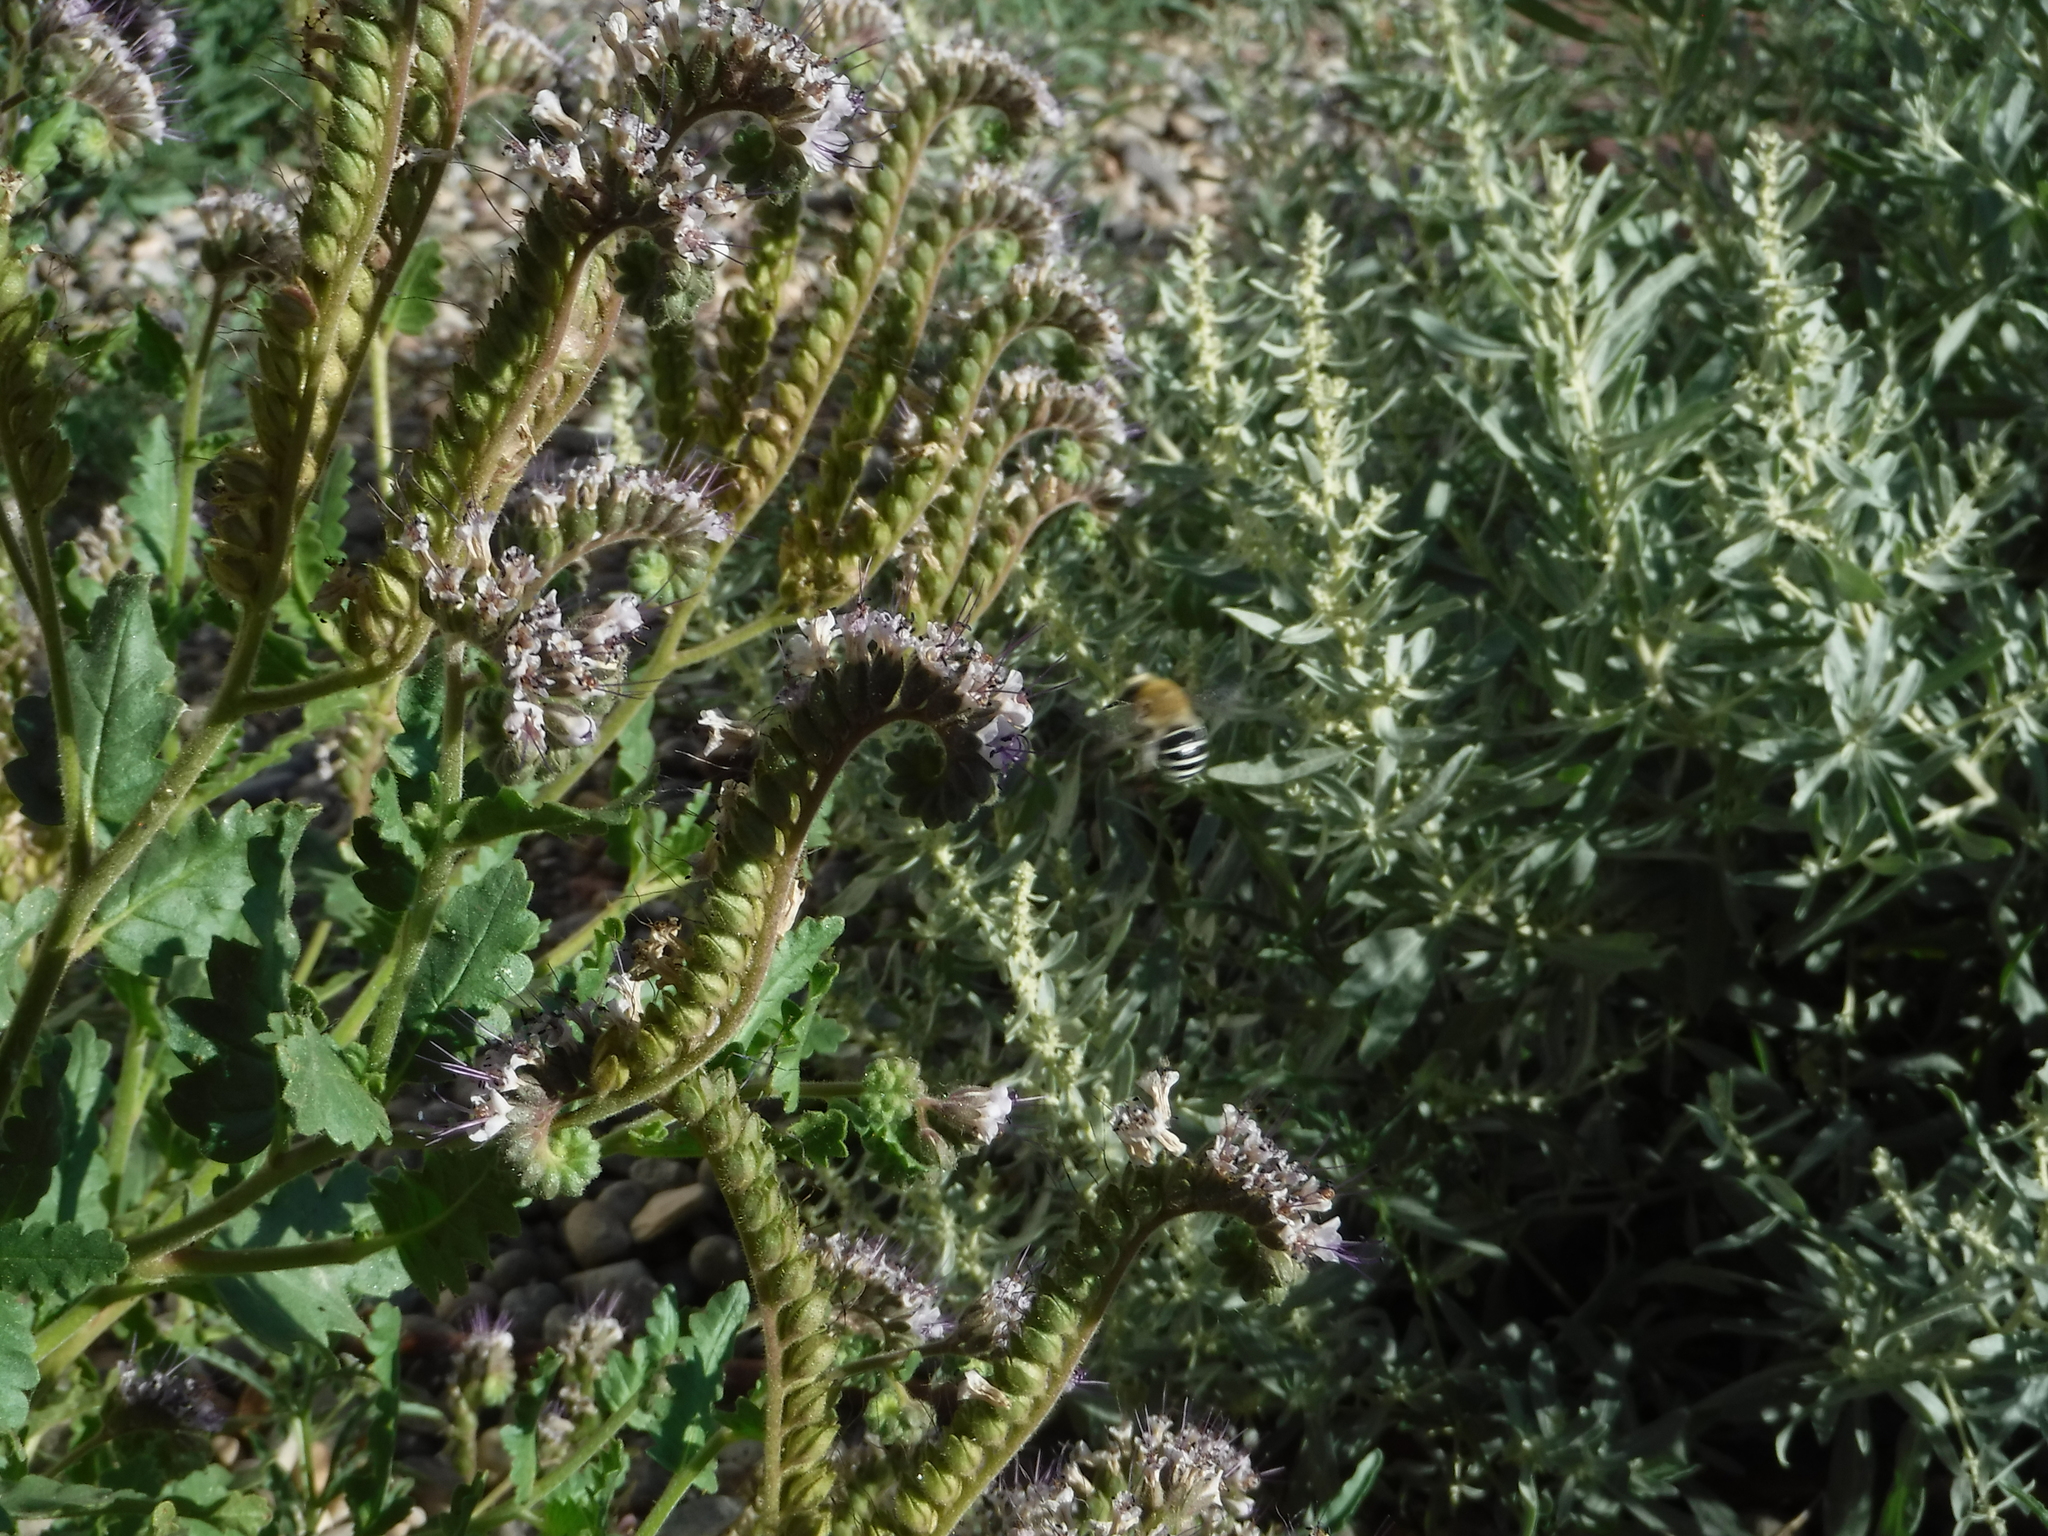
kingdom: Animalia
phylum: Arthropoda
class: Insecta
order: Hymenoptera
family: Apidae
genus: Anthophora
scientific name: Anthophora californica
